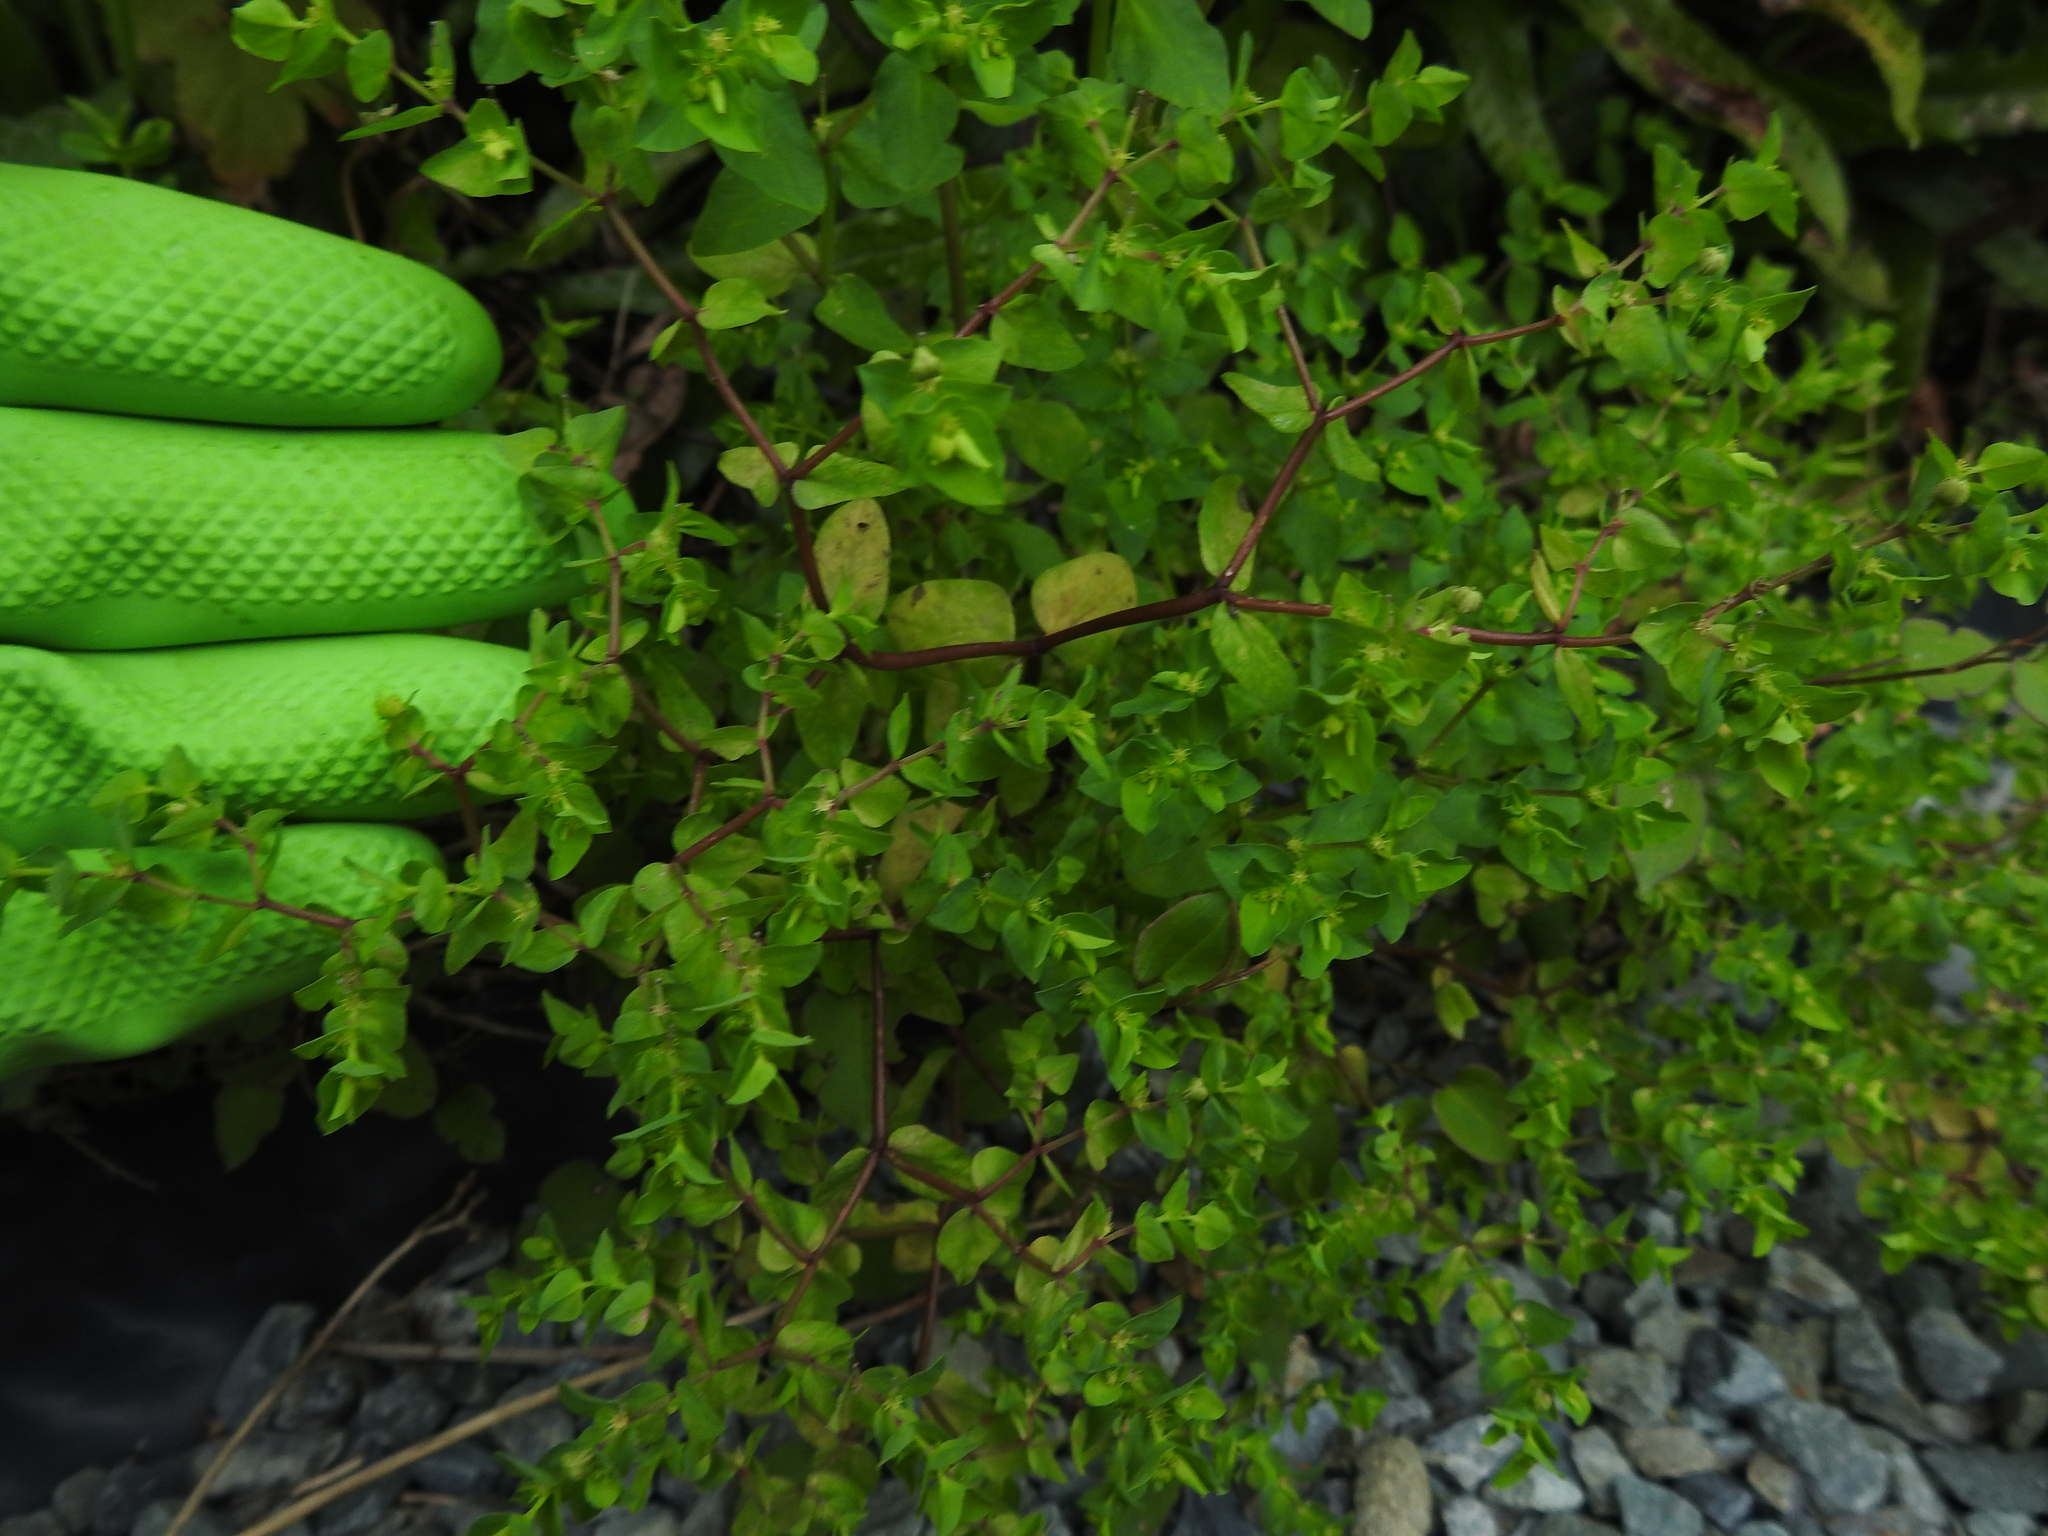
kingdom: Plantae
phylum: Tracheophyta
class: Magnoliopsida
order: Malpighiales
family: Euphorbiaceae
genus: Euphorbia
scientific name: Euphorbia peplus
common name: Petty spurge
